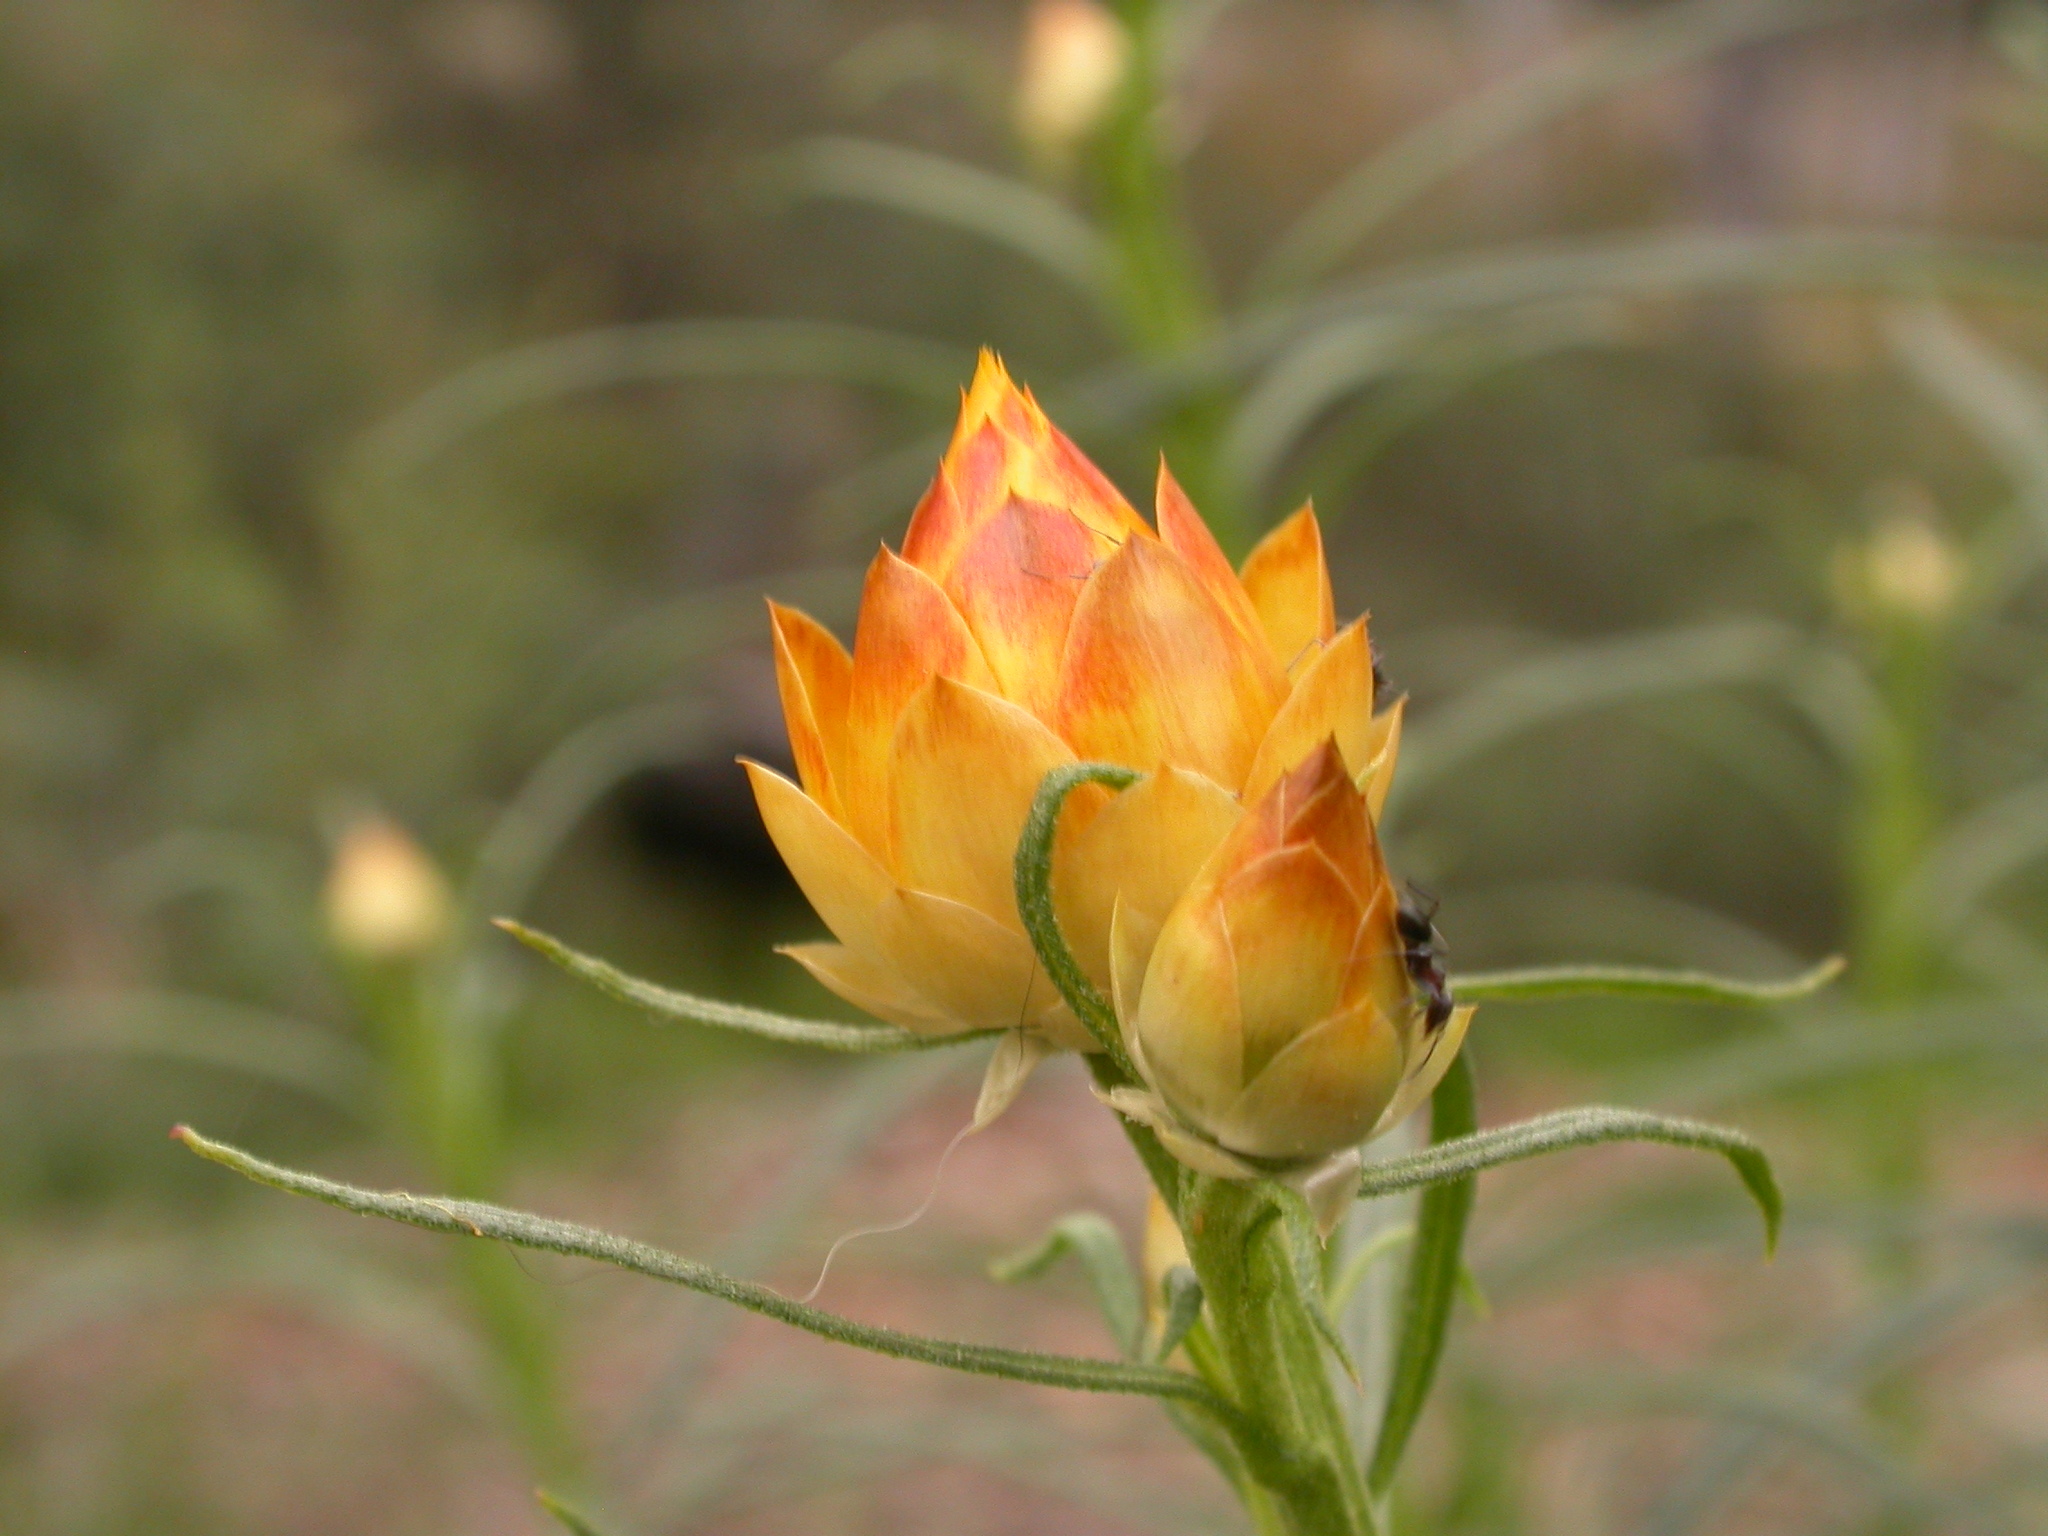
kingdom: Plantae
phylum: Tracheophyta
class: Magnoliopsida
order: Asterales
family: Asteraceae
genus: Xerochrysum
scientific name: Xerochrysum viscosum
